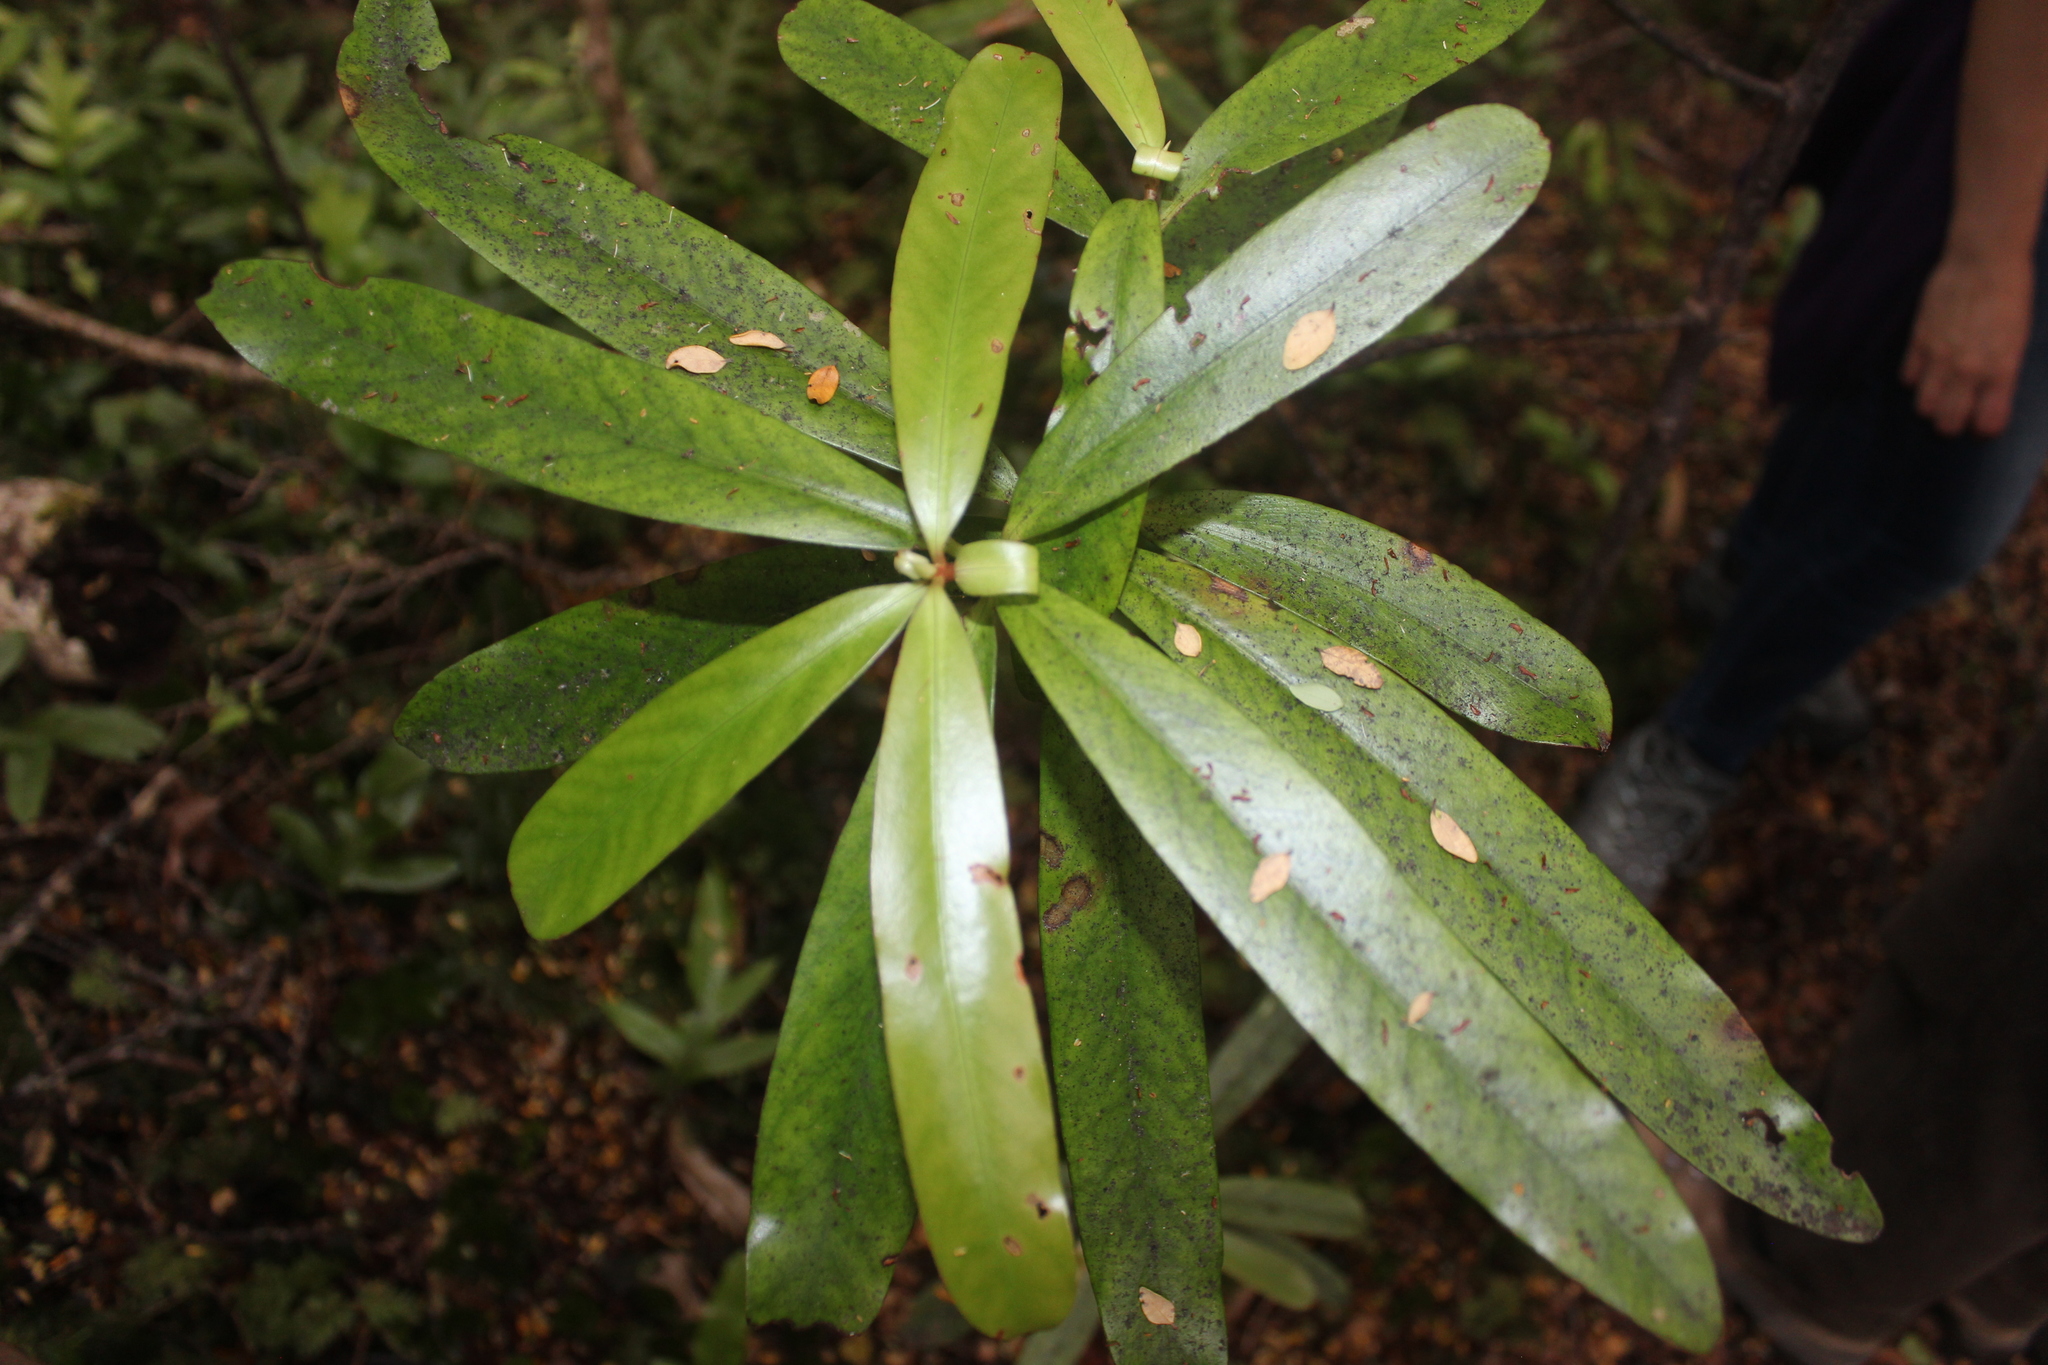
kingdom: Plantae
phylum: Tracheophyta
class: Magnoliopsida
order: Ericales
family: Primulaceae
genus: Myrsine
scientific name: Myrsine salicina
